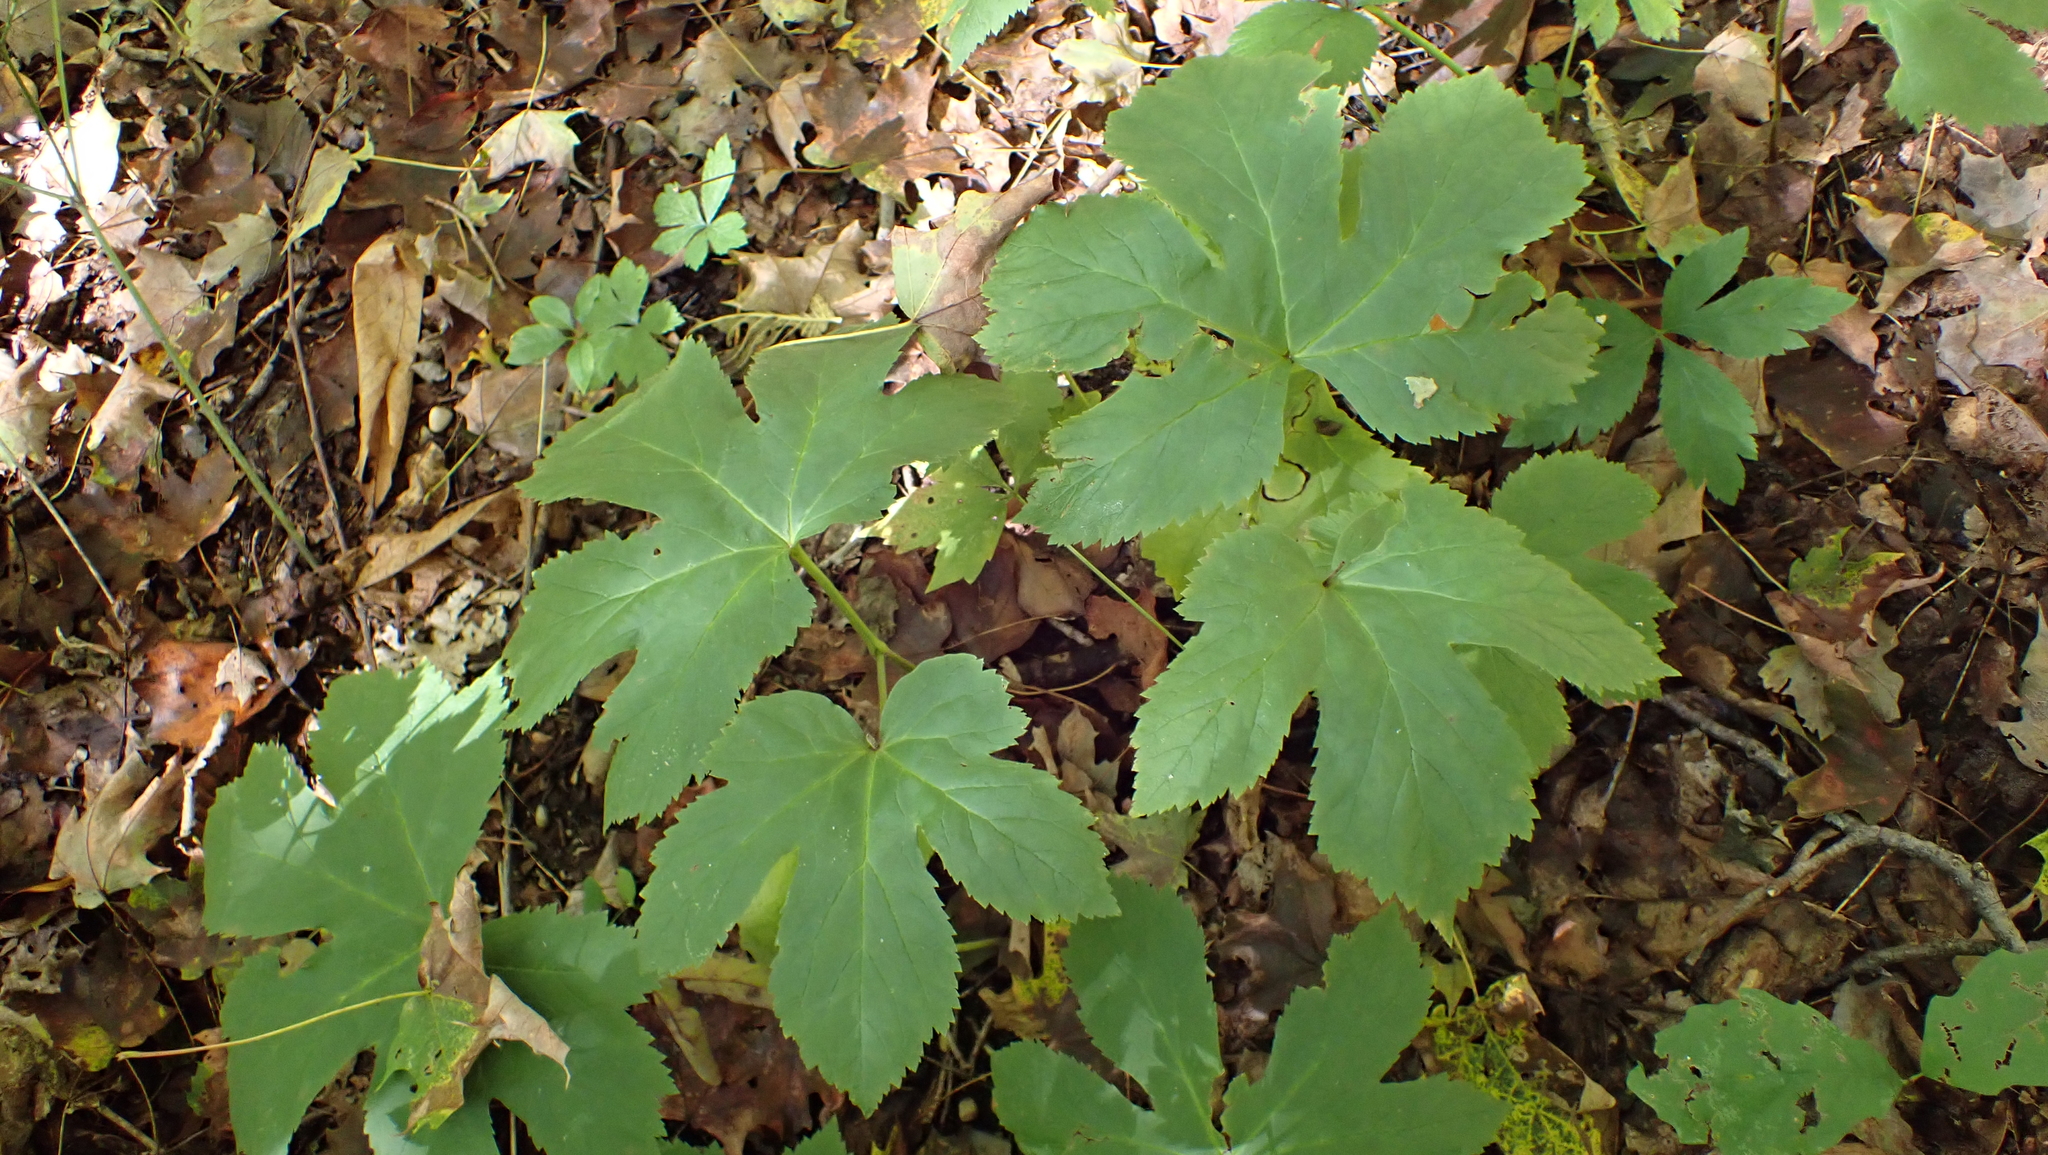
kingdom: Plantae
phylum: Tracheophyta
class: Magnoliopsida
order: Ranunculales
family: Ranunculaceae
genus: Hydrastis
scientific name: Hydrastis canadensis
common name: Goldenseal
